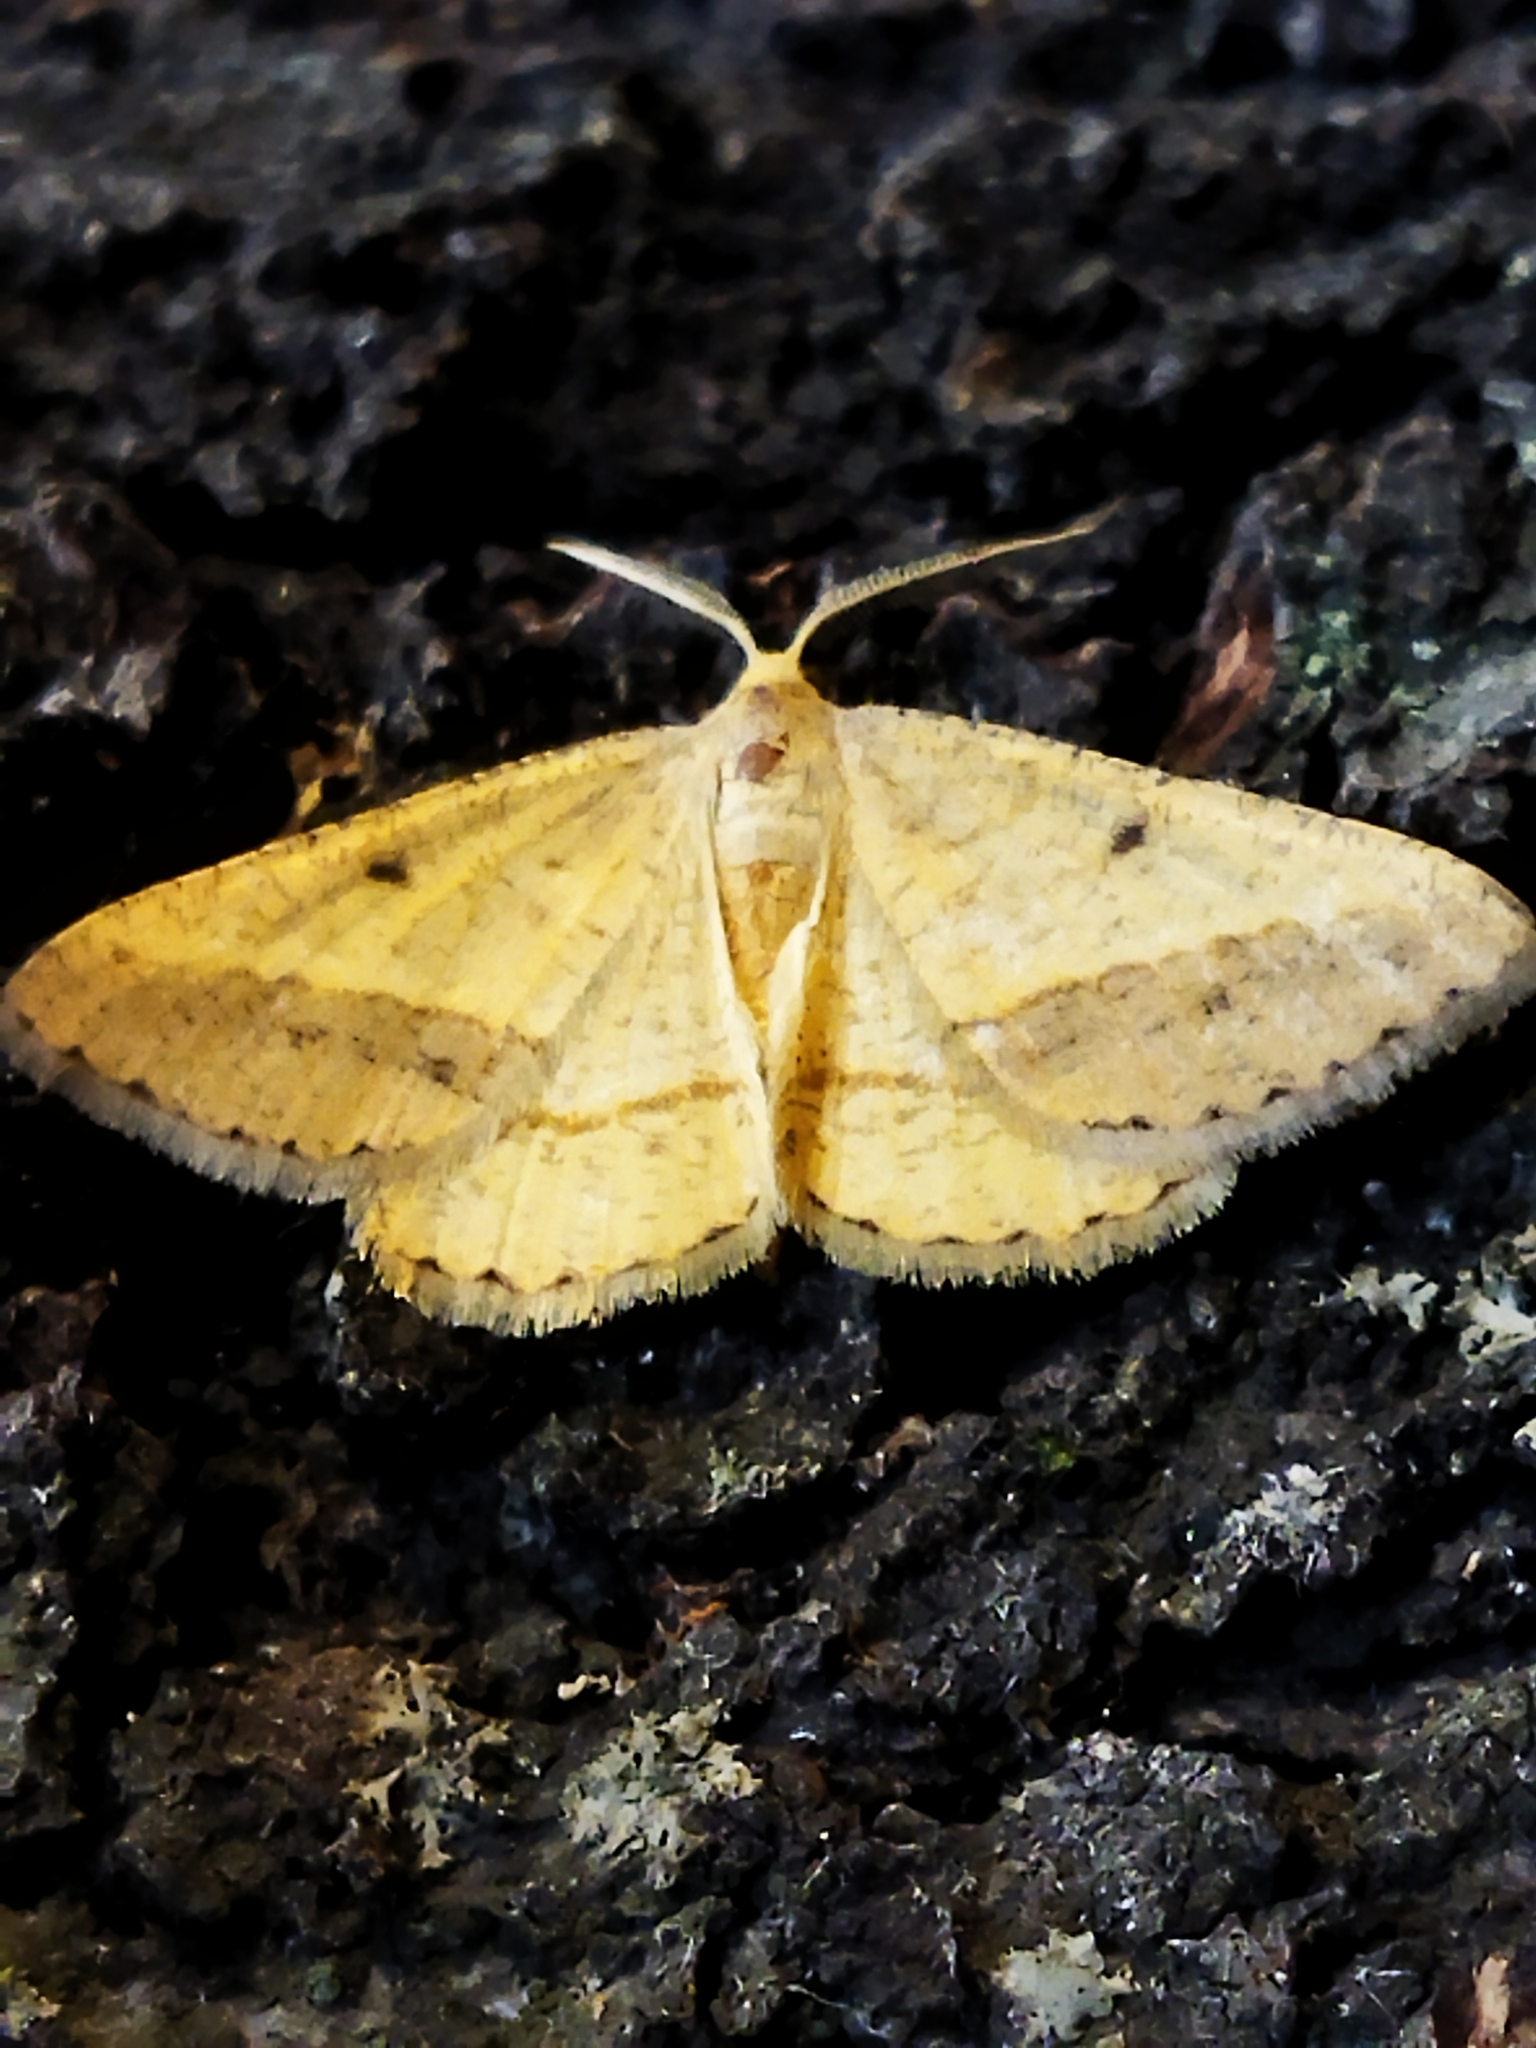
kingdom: Animalia
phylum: Arthropoda
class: Insecta
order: Lepidoptera
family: Geometridae
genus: Tephrina
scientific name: Tephrina arenacearia
